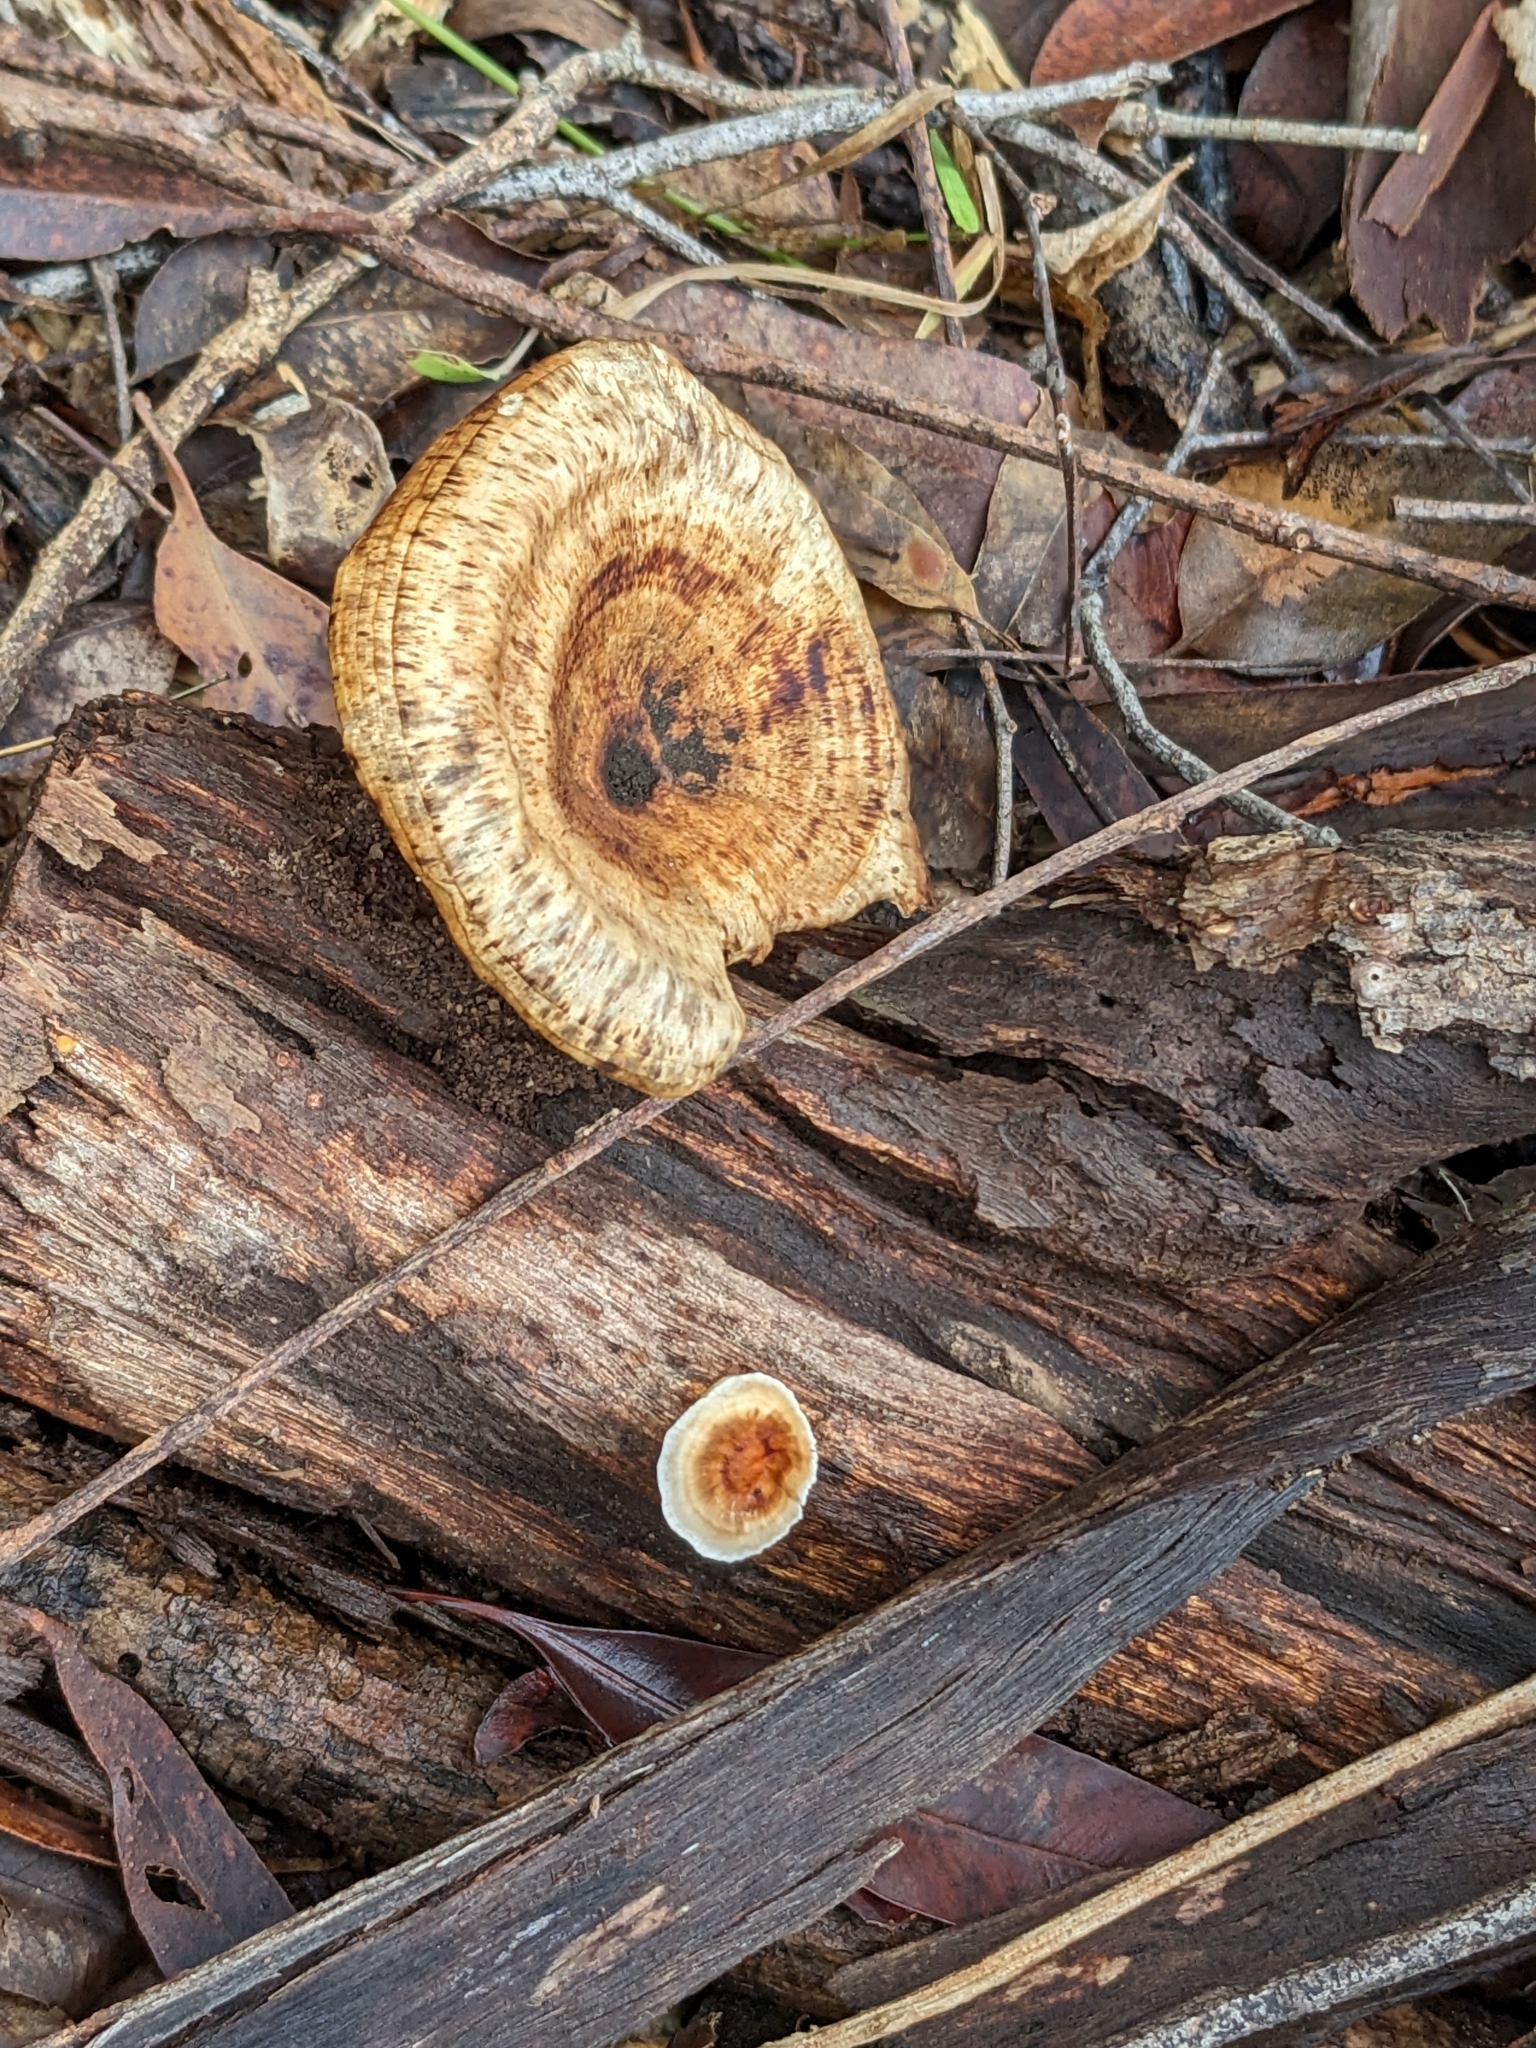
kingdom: Fungi
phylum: Basidiomycota
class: Agaricomycetes
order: Polyporales
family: Polyporaceae
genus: Microporus
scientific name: Microporus xanthopus
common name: Yellow-stemmed micropore
